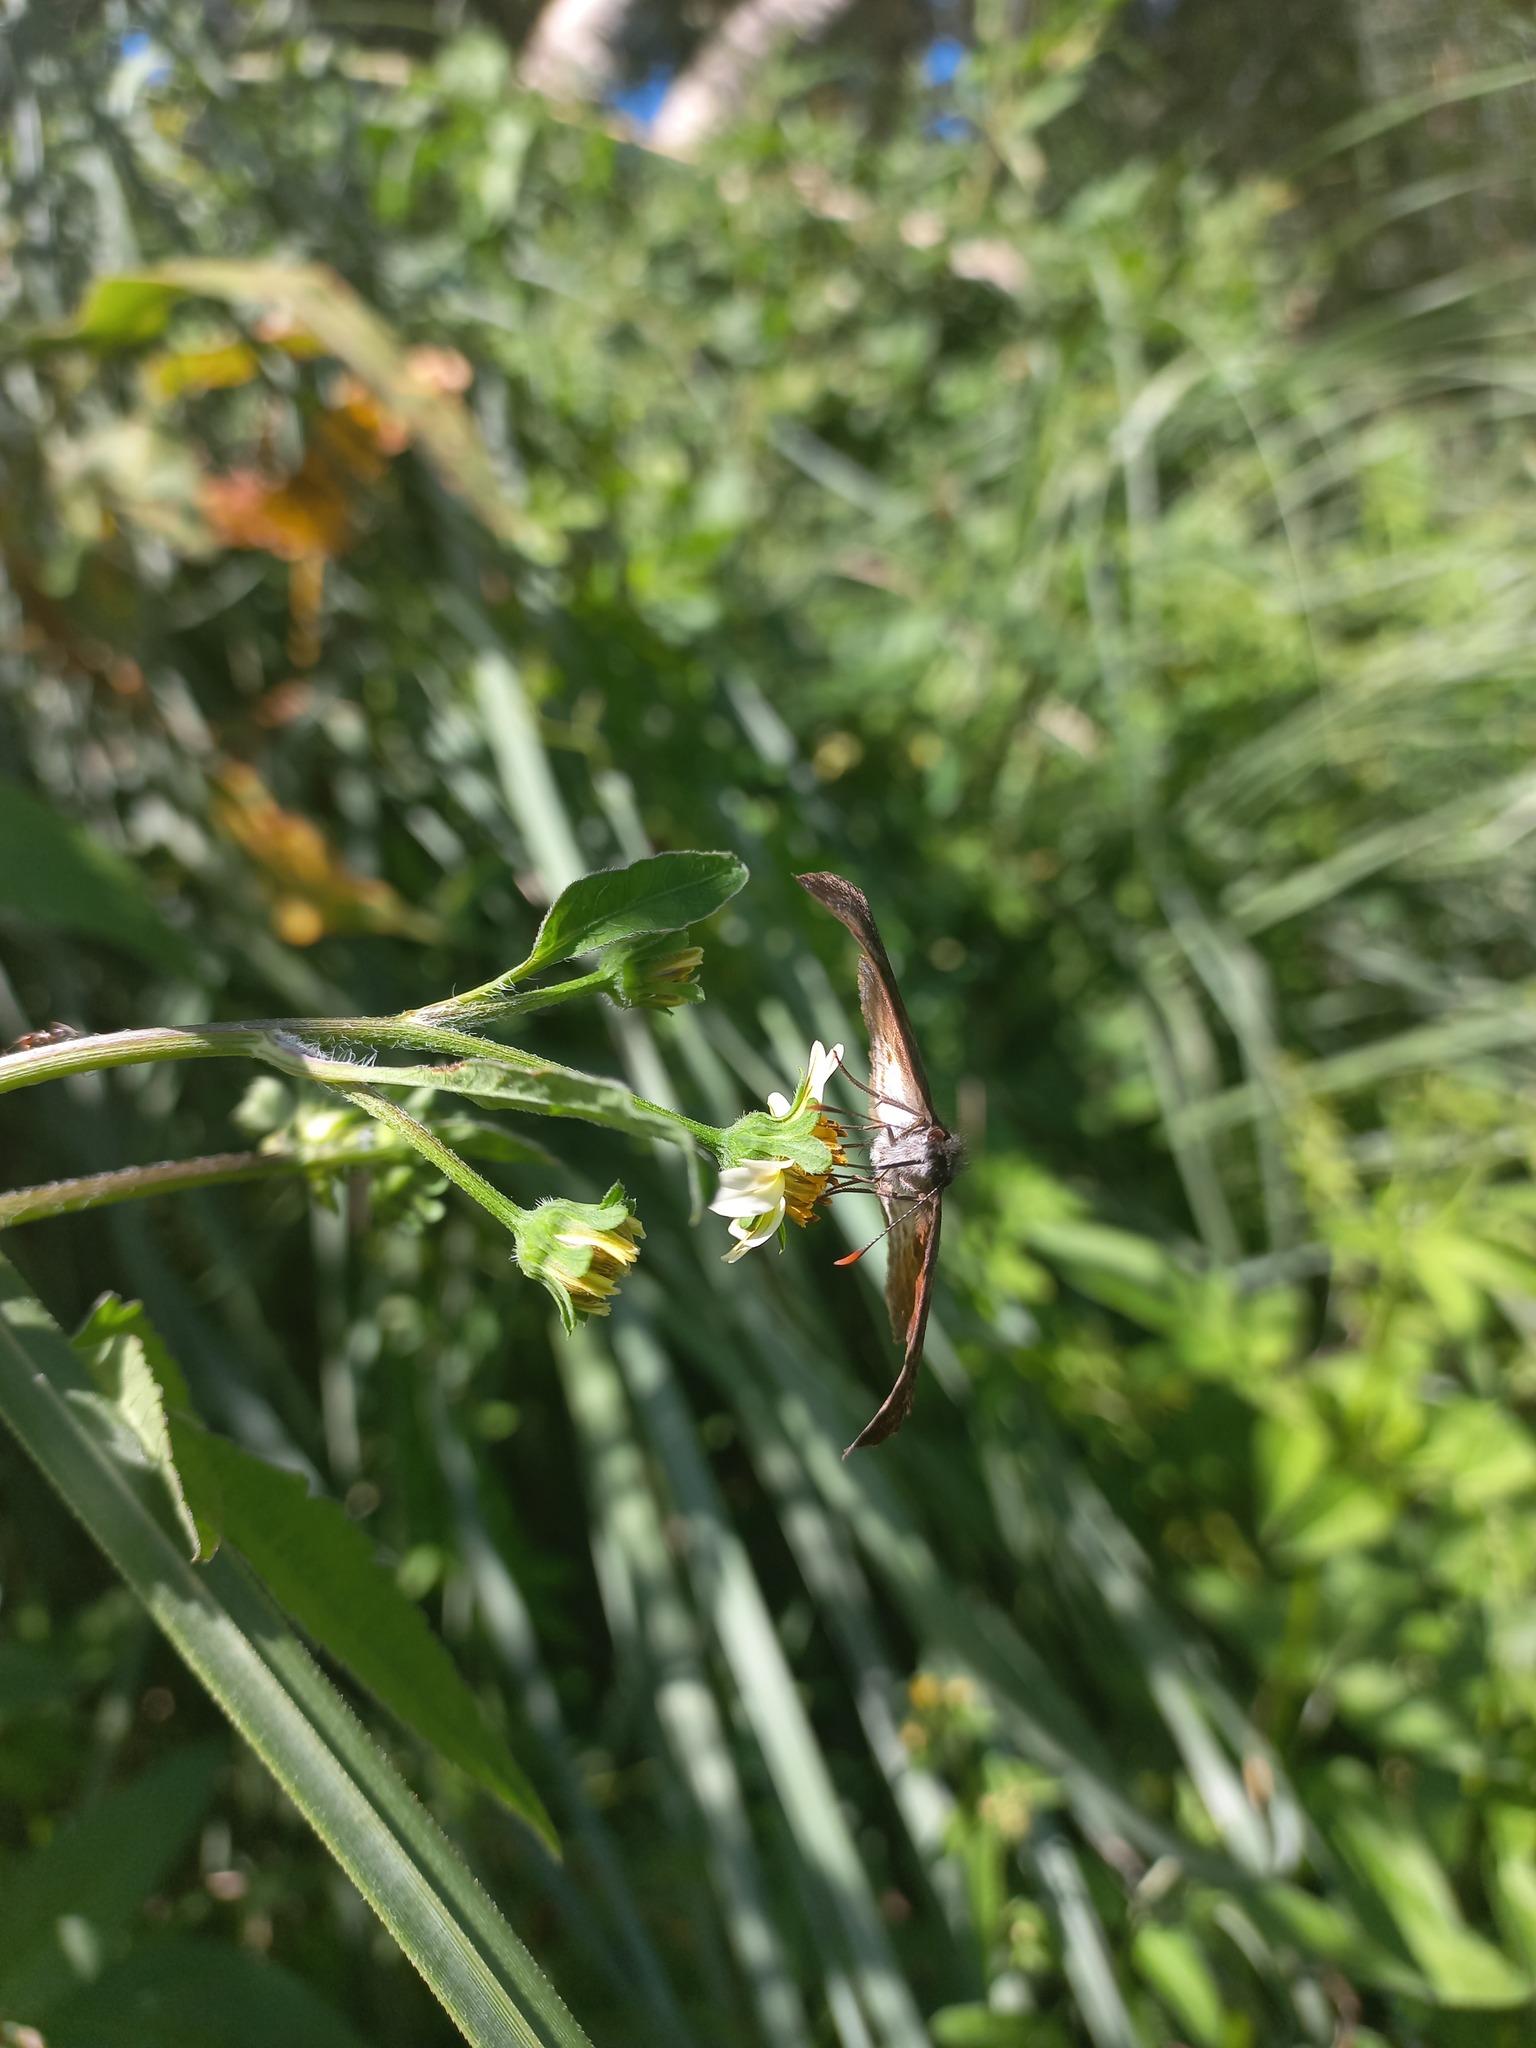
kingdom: Animalia
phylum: Arthropoda
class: Insecta
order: Lepidoptera
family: Hesperiidae
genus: Theagenes
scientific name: Theagenes dichrous
